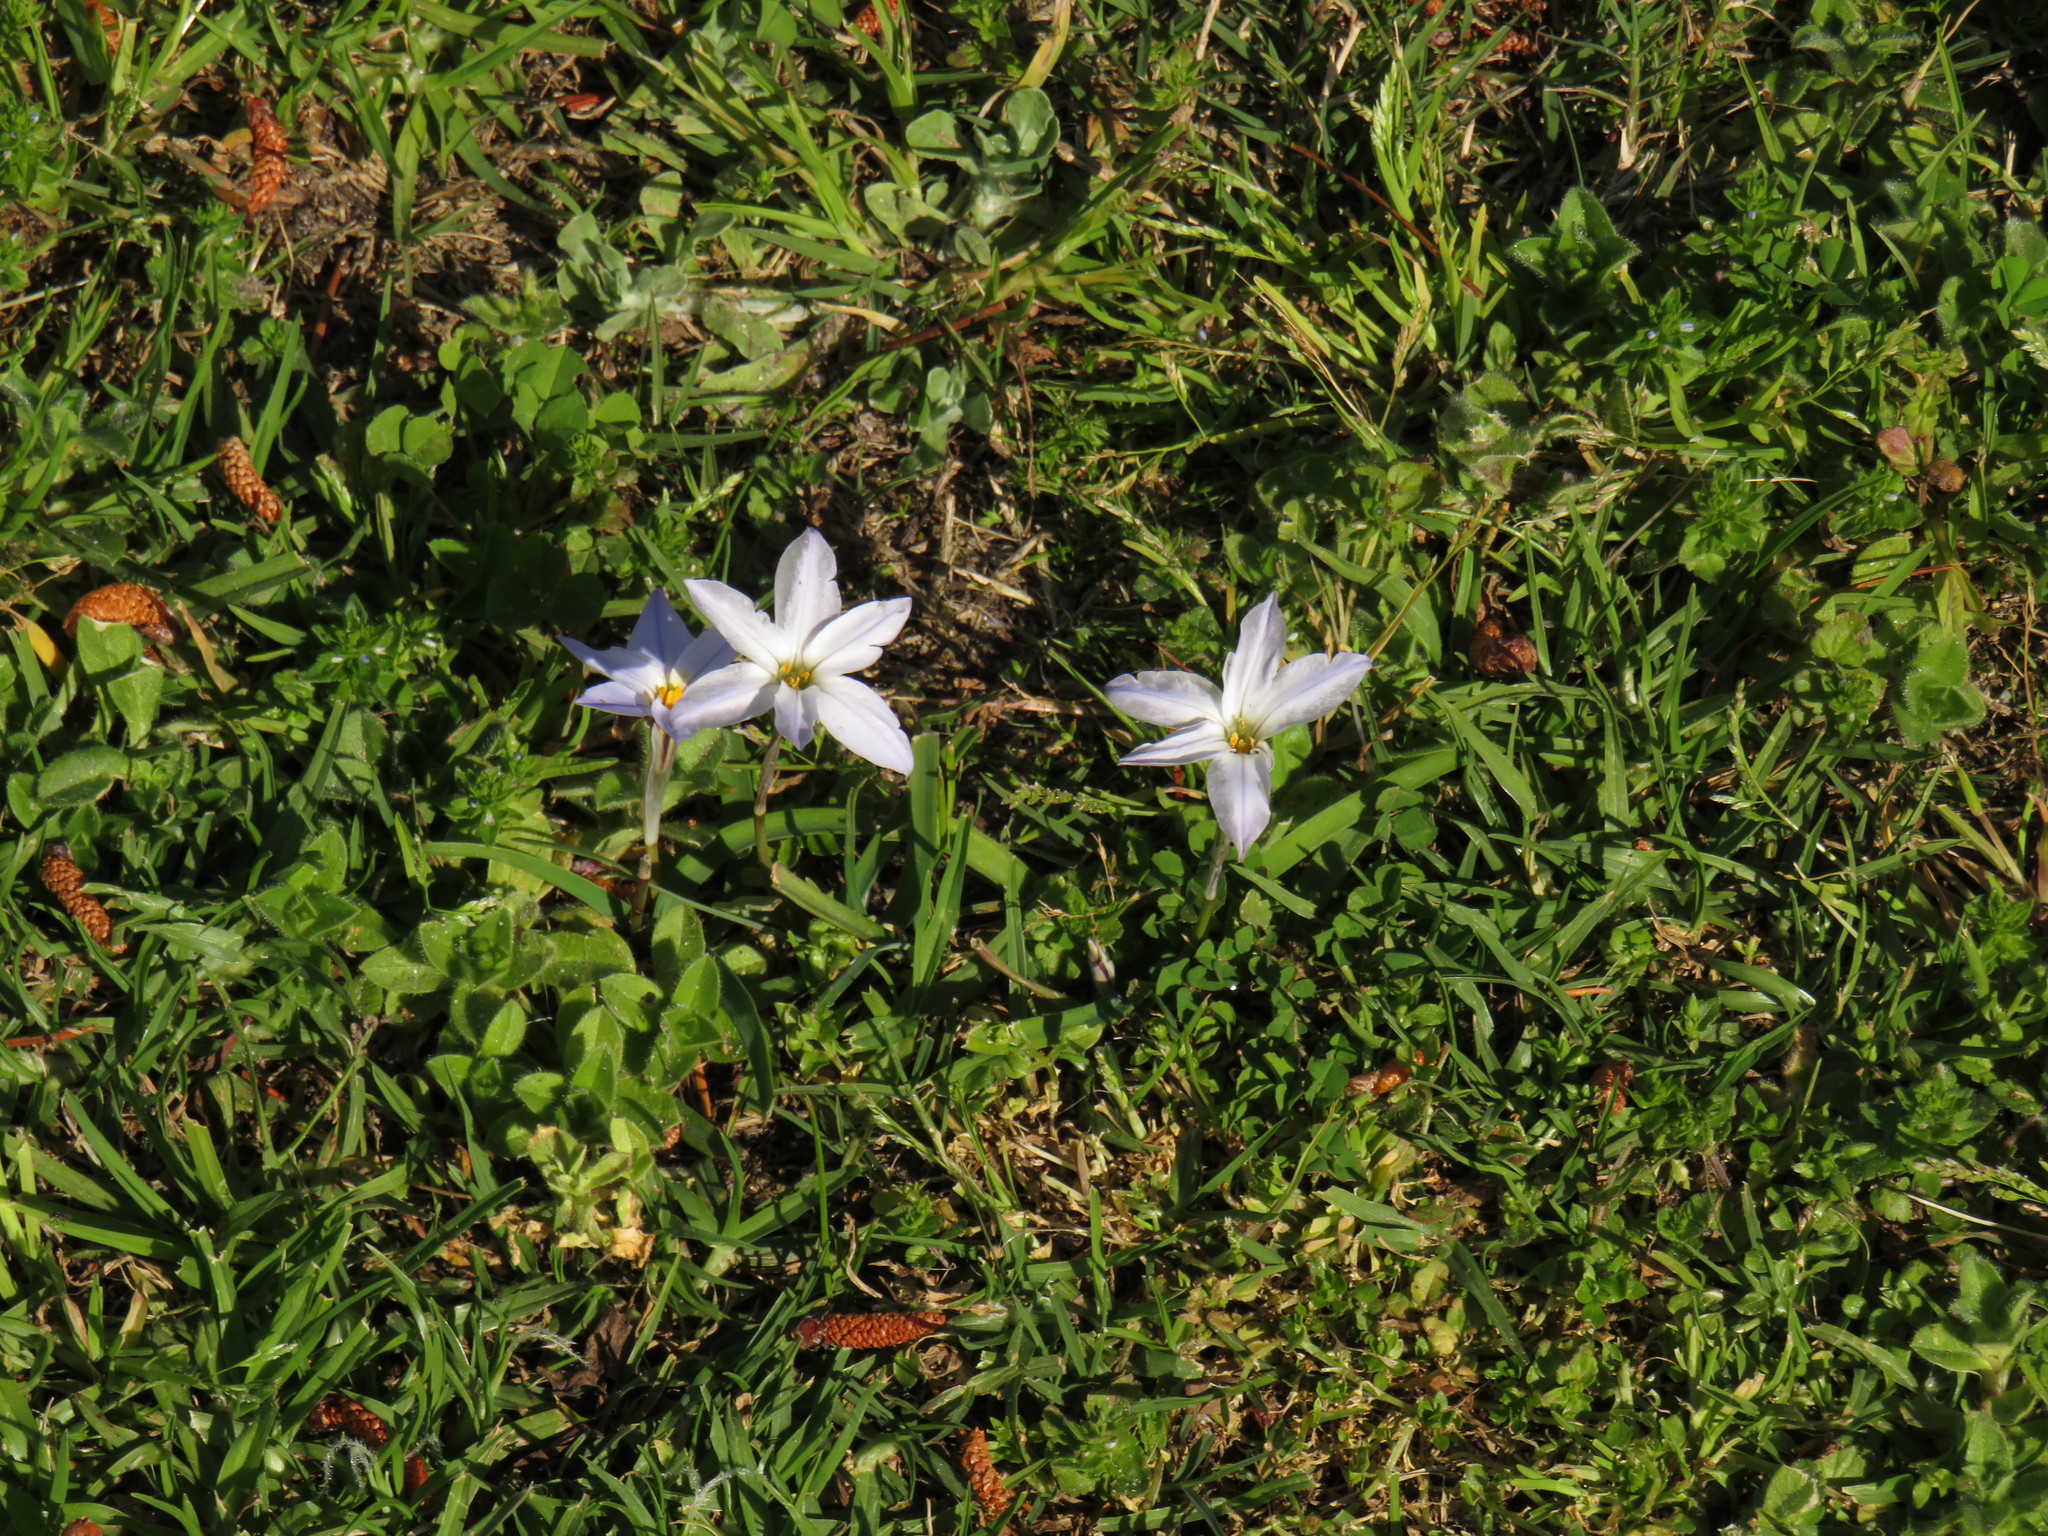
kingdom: Plantae
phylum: Tracheophyta
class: Liliopsida
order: Asparagales
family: Amaryllidaceae
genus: Ipheion
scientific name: Ipheion uniflorum
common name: Spring starflower
